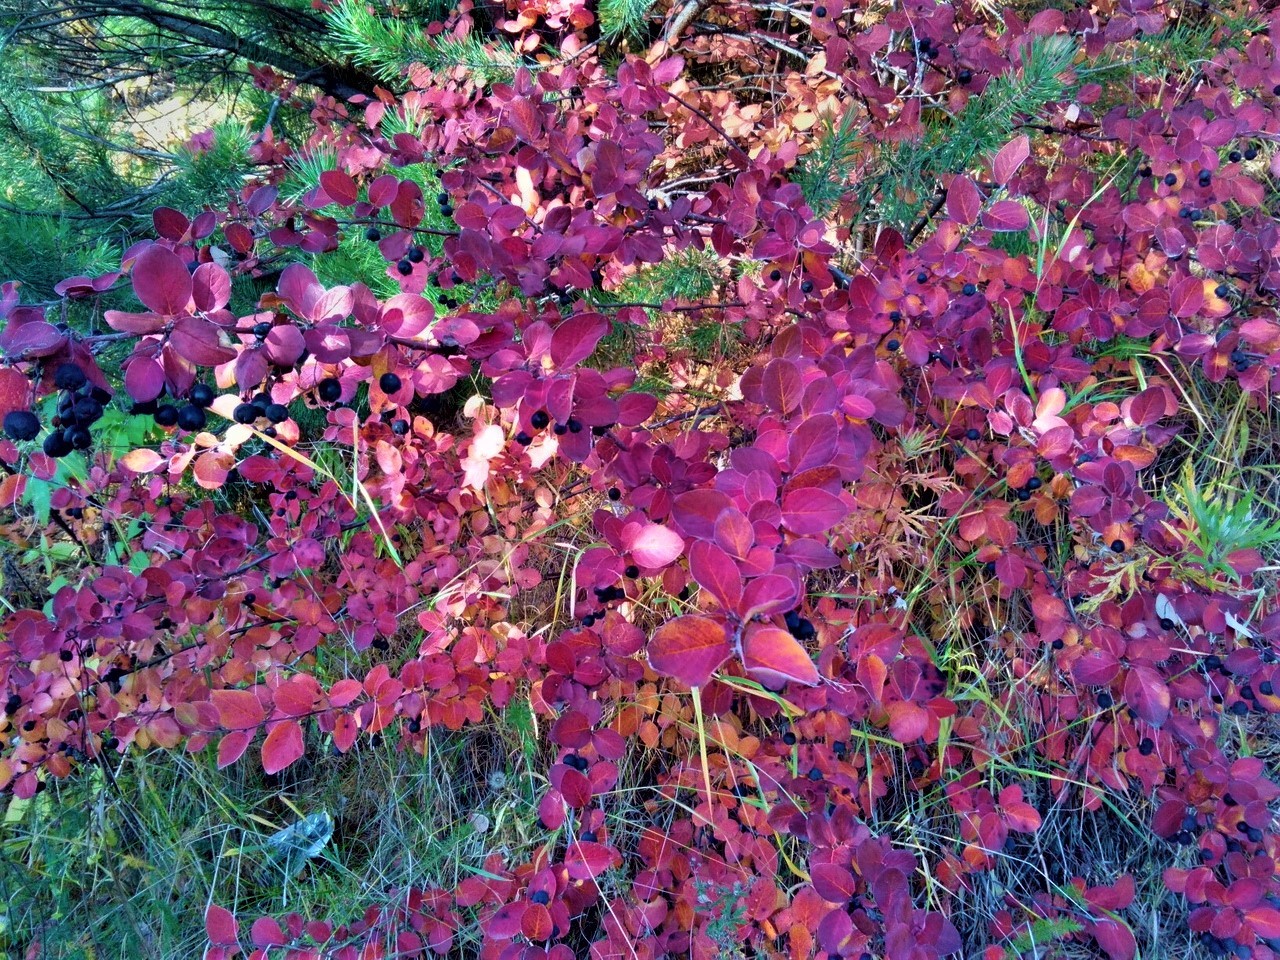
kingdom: Plantae
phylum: Tracheophyta
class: Magnoliopsida
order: Rosales
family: Rosaceae
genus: Cotoneaster
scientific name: Cotoneaster melanocarpus
